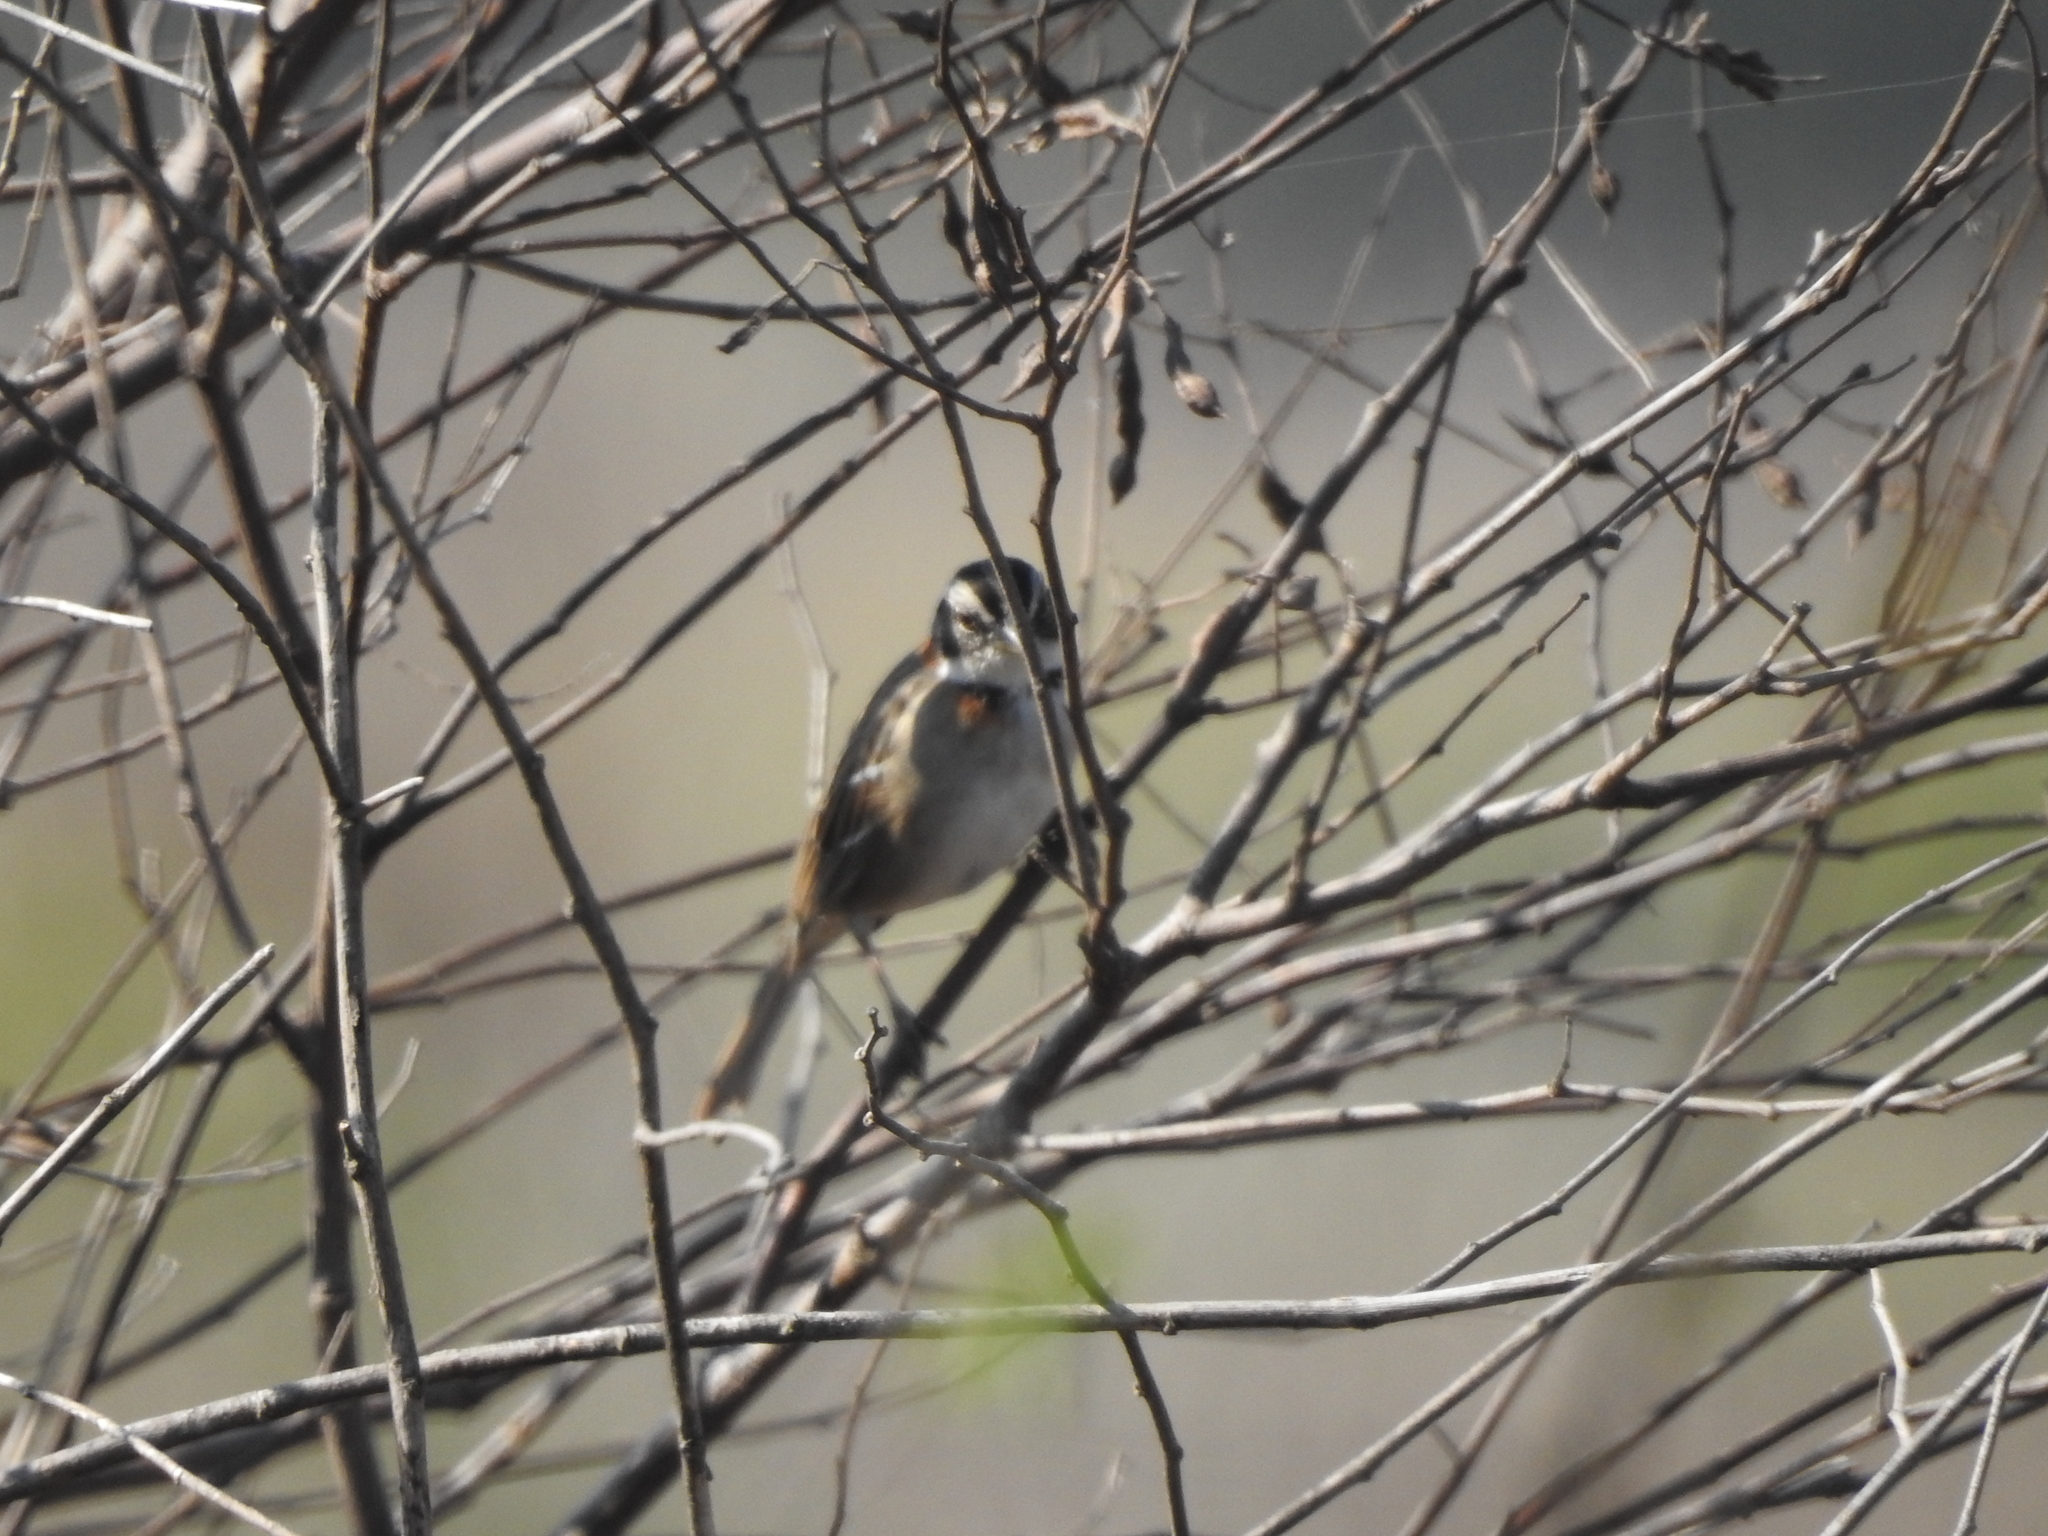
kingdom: Animalia
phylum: Chordata
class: Aves
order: Passeriformes
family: Passerellidae
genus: Zonotrichia
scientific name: Zonotrichia capensis
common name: Rufous-collared sparrow
